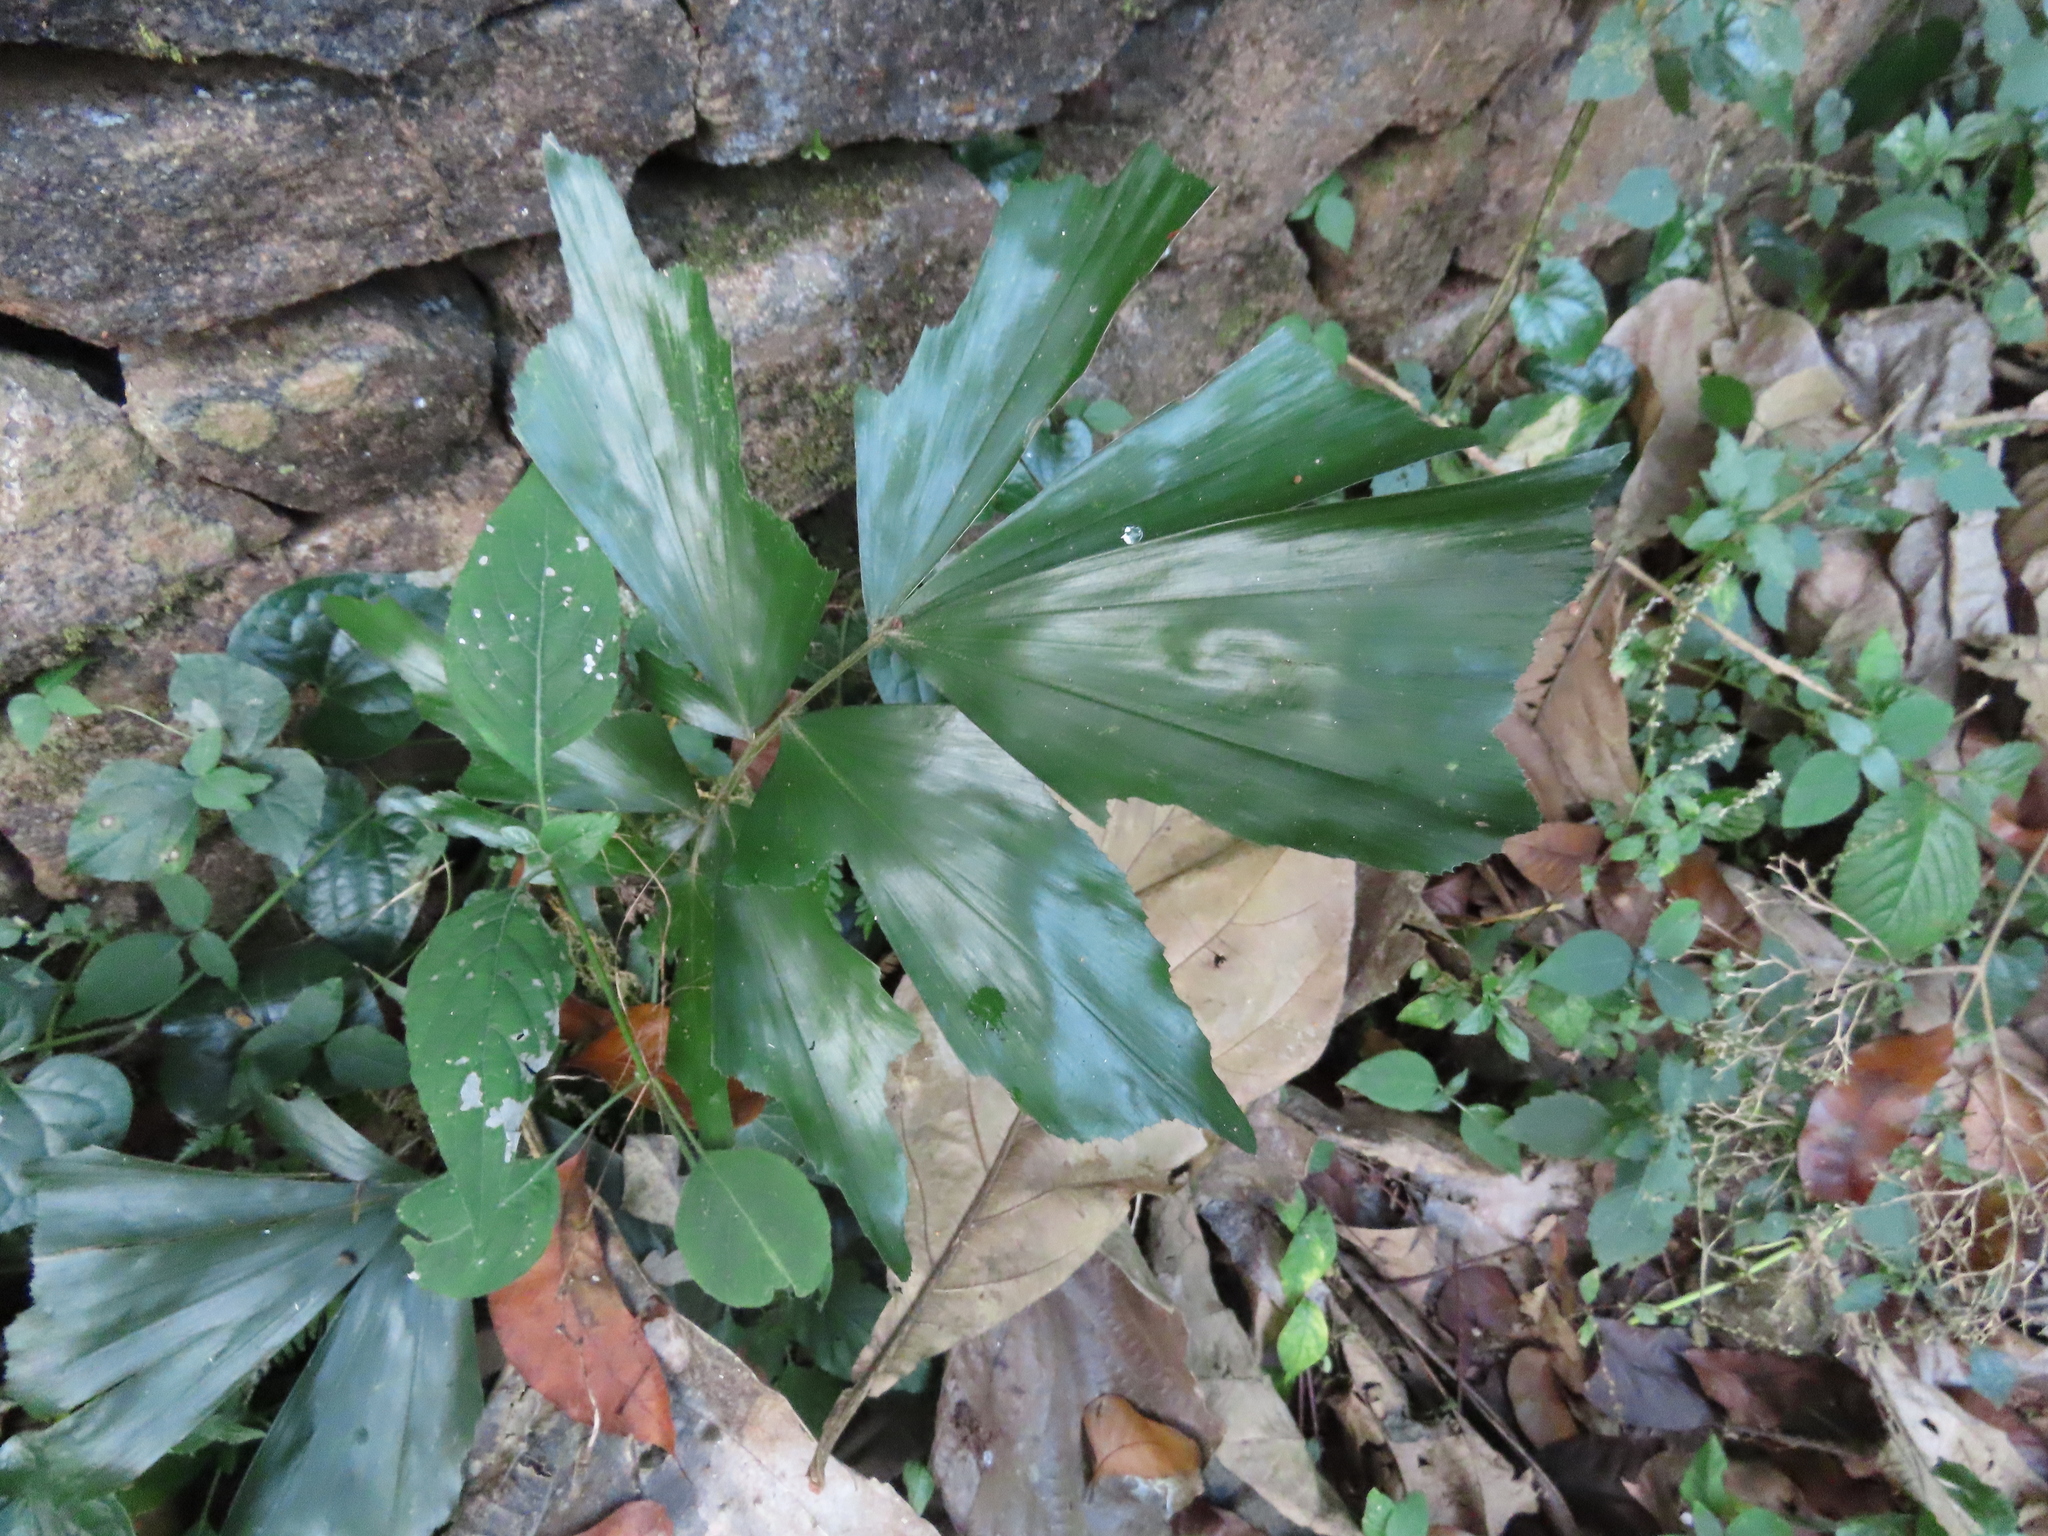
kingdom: Plantae
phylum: Tracheophyta
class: Liliopsida
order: Arecales
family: Arecaceae
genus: Caryota
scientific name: Caryota urens
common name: Jaggery palm
